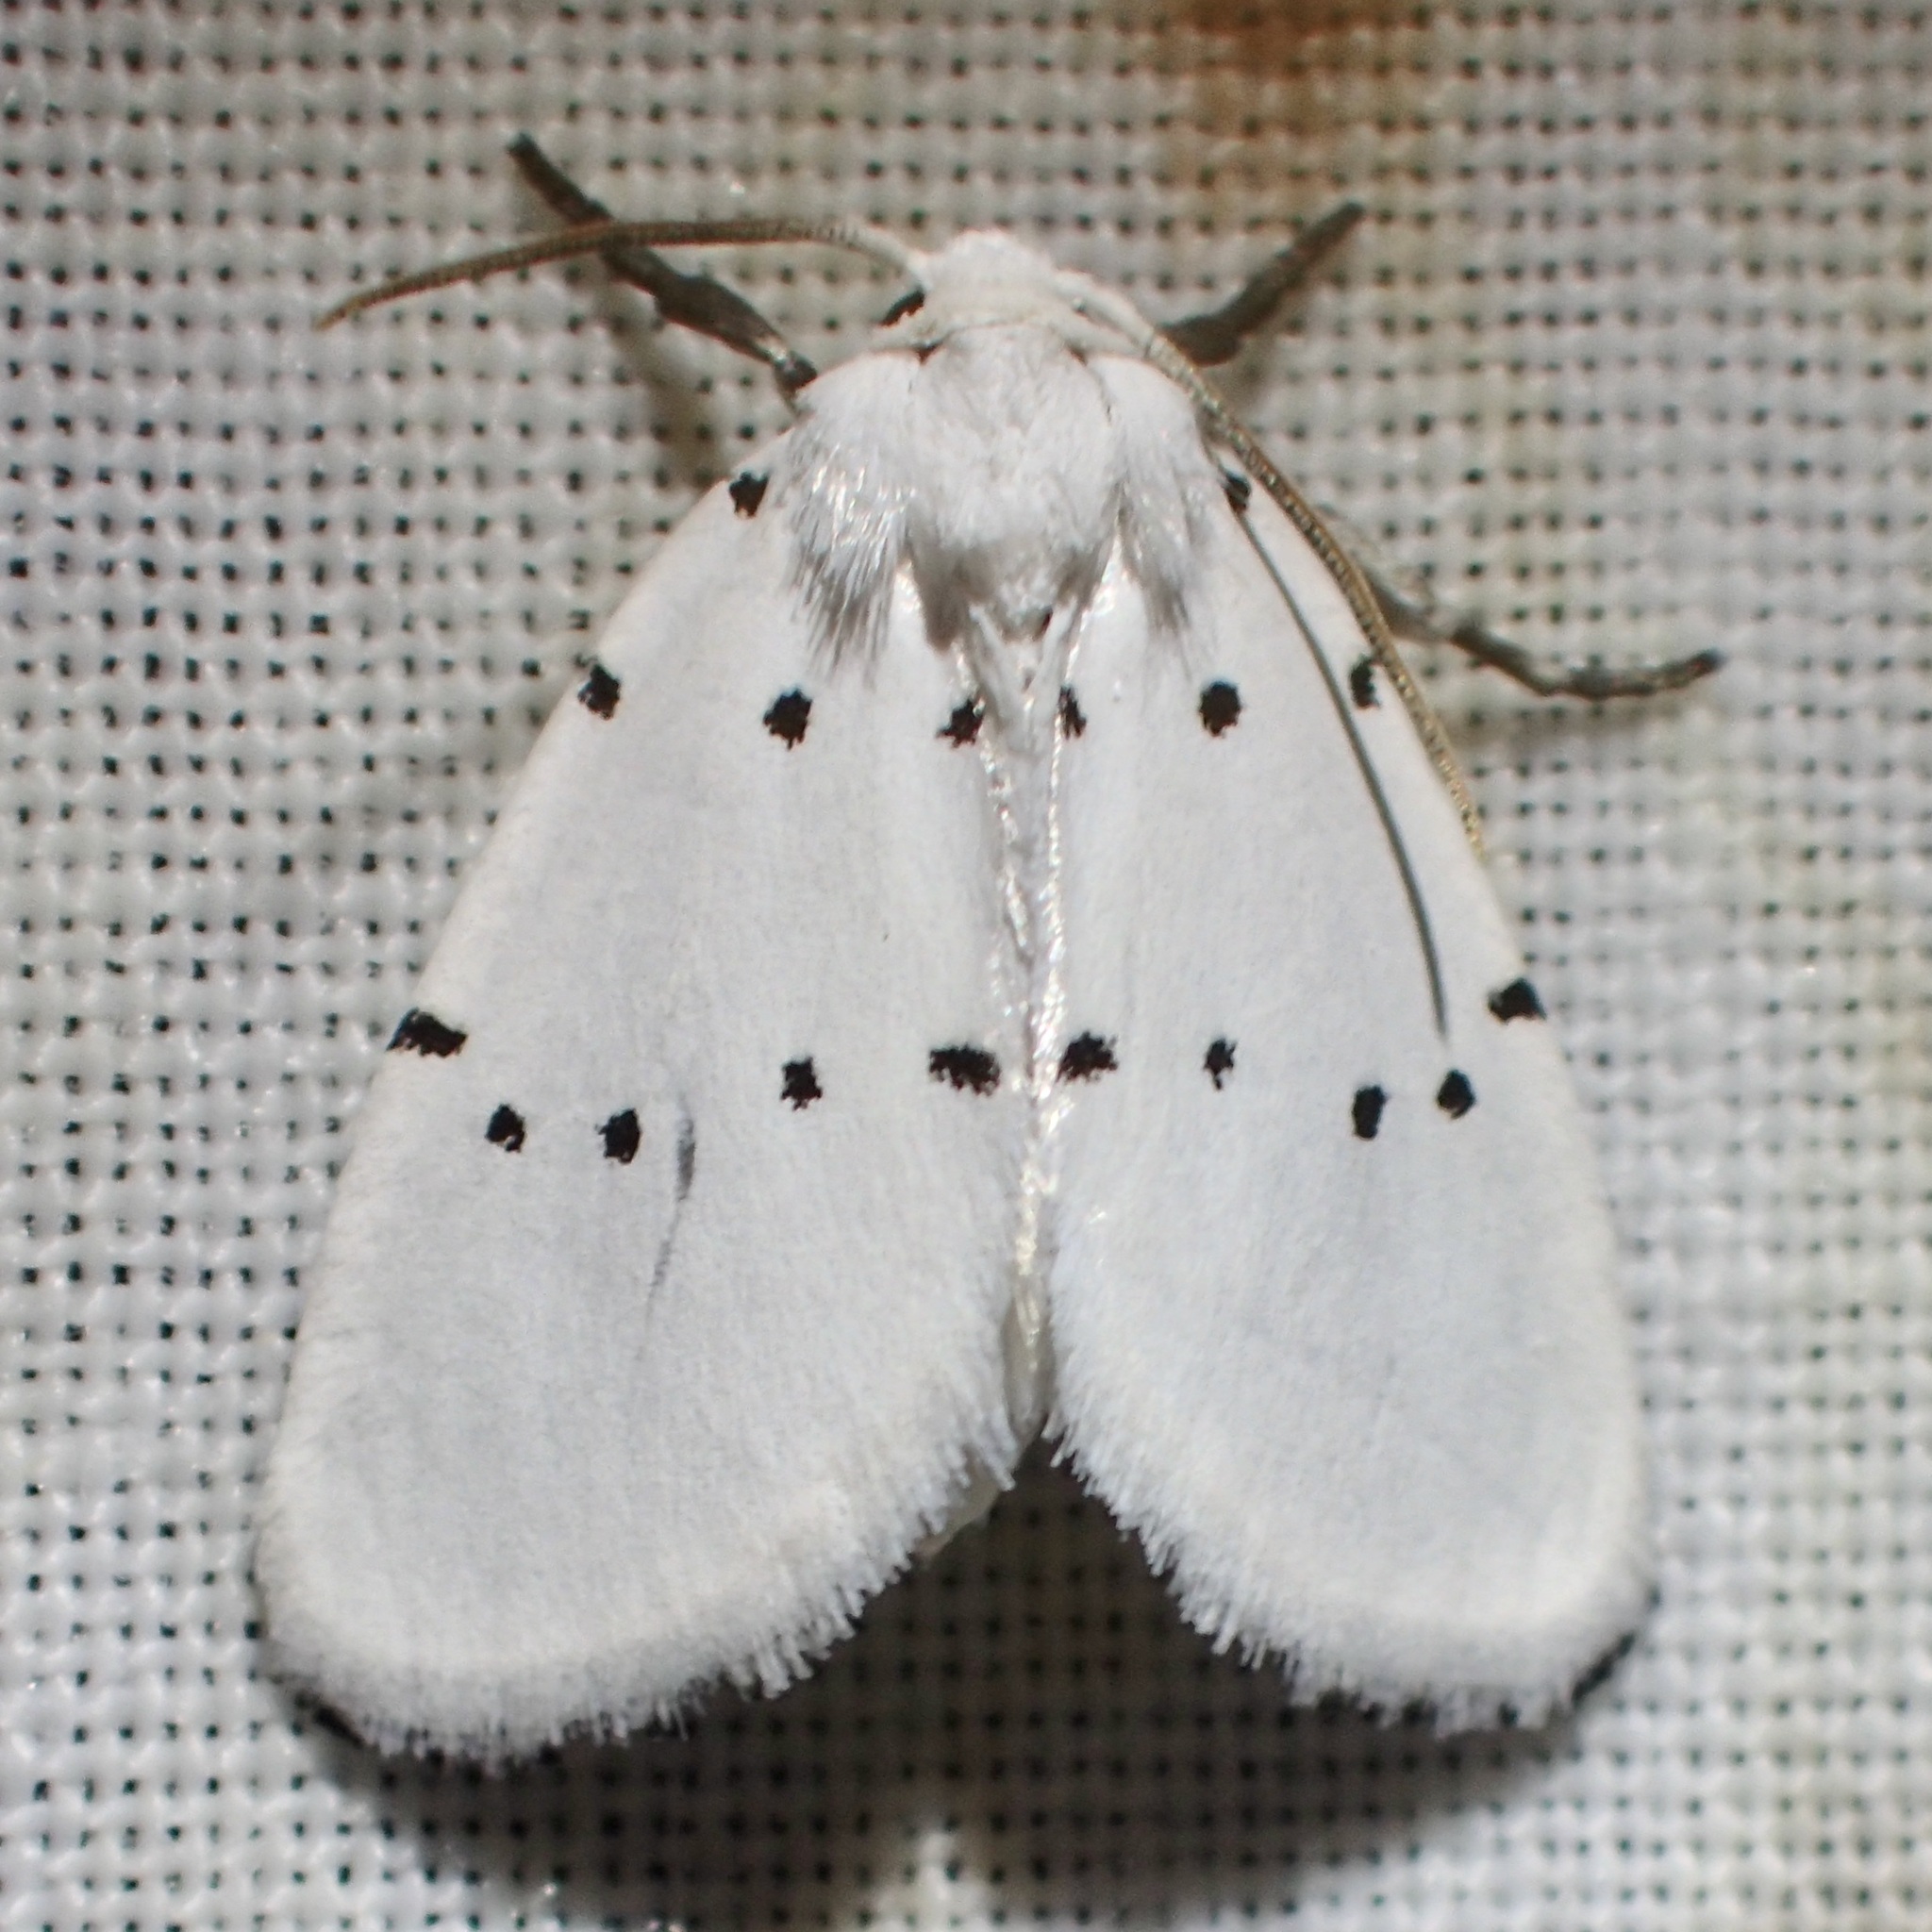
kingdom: Animalia
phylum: Arthropoda
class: Insecta
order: Lepidoptera
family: Noctuidae
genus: Homolagoa
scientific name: Homolagoa grotelliformis
